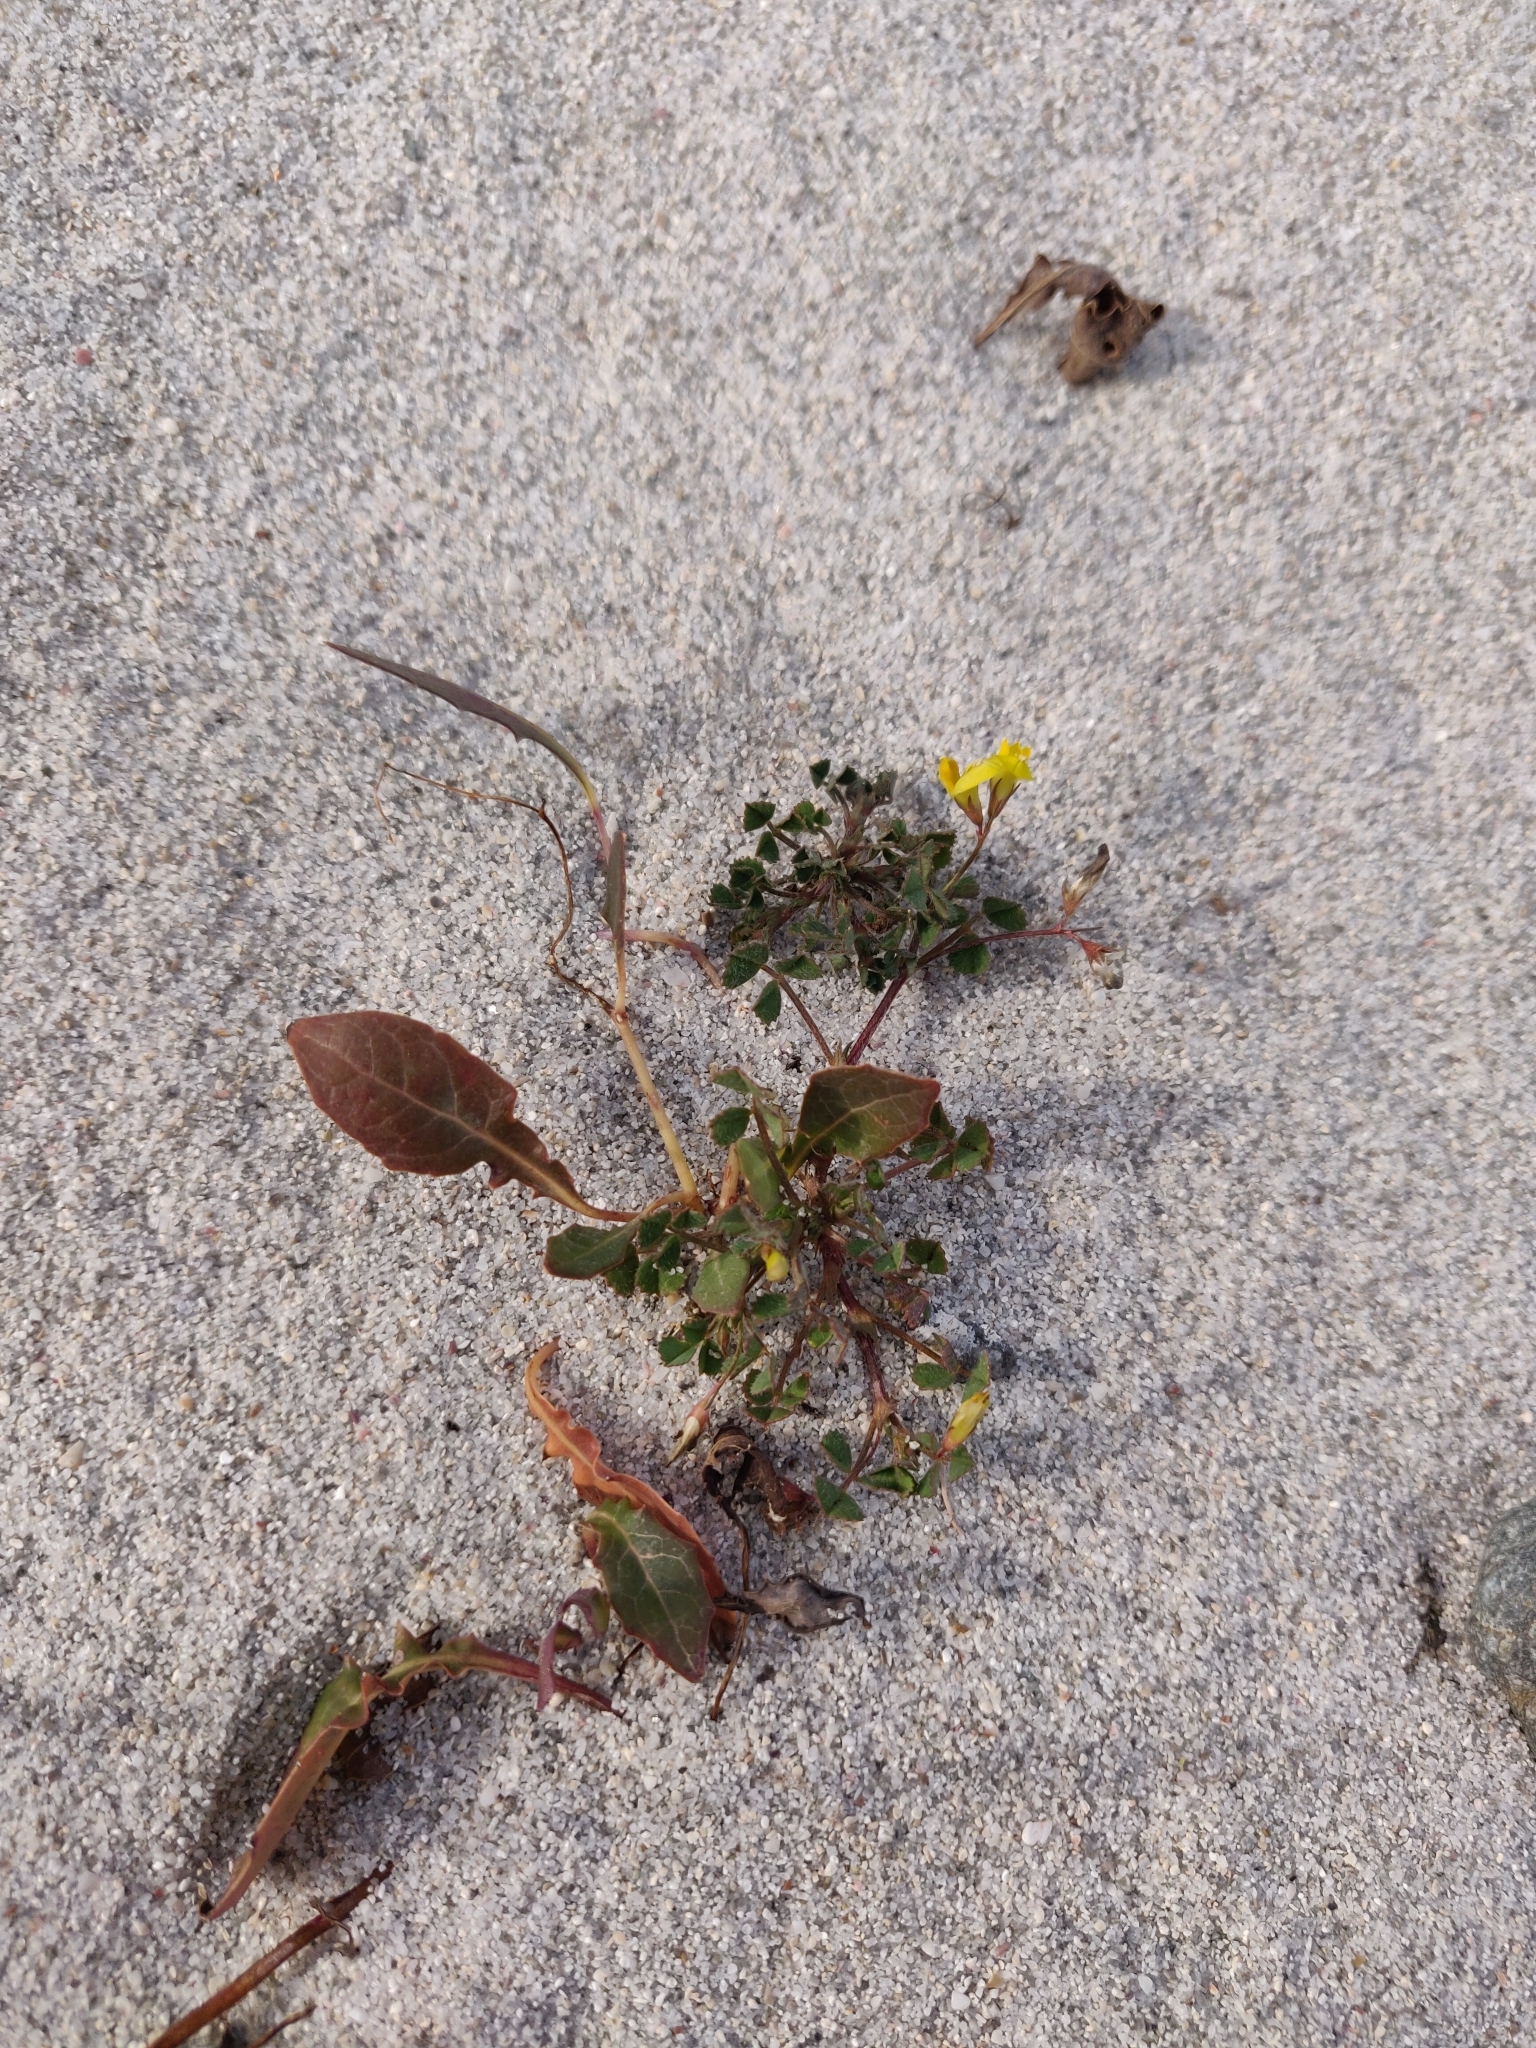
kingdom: Plantae
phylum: Tracheophyta
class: Magnoliopsida
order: Fabales
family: Fabaceae
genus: Medicago
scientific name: Medicago littoralis
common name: Shore medick
